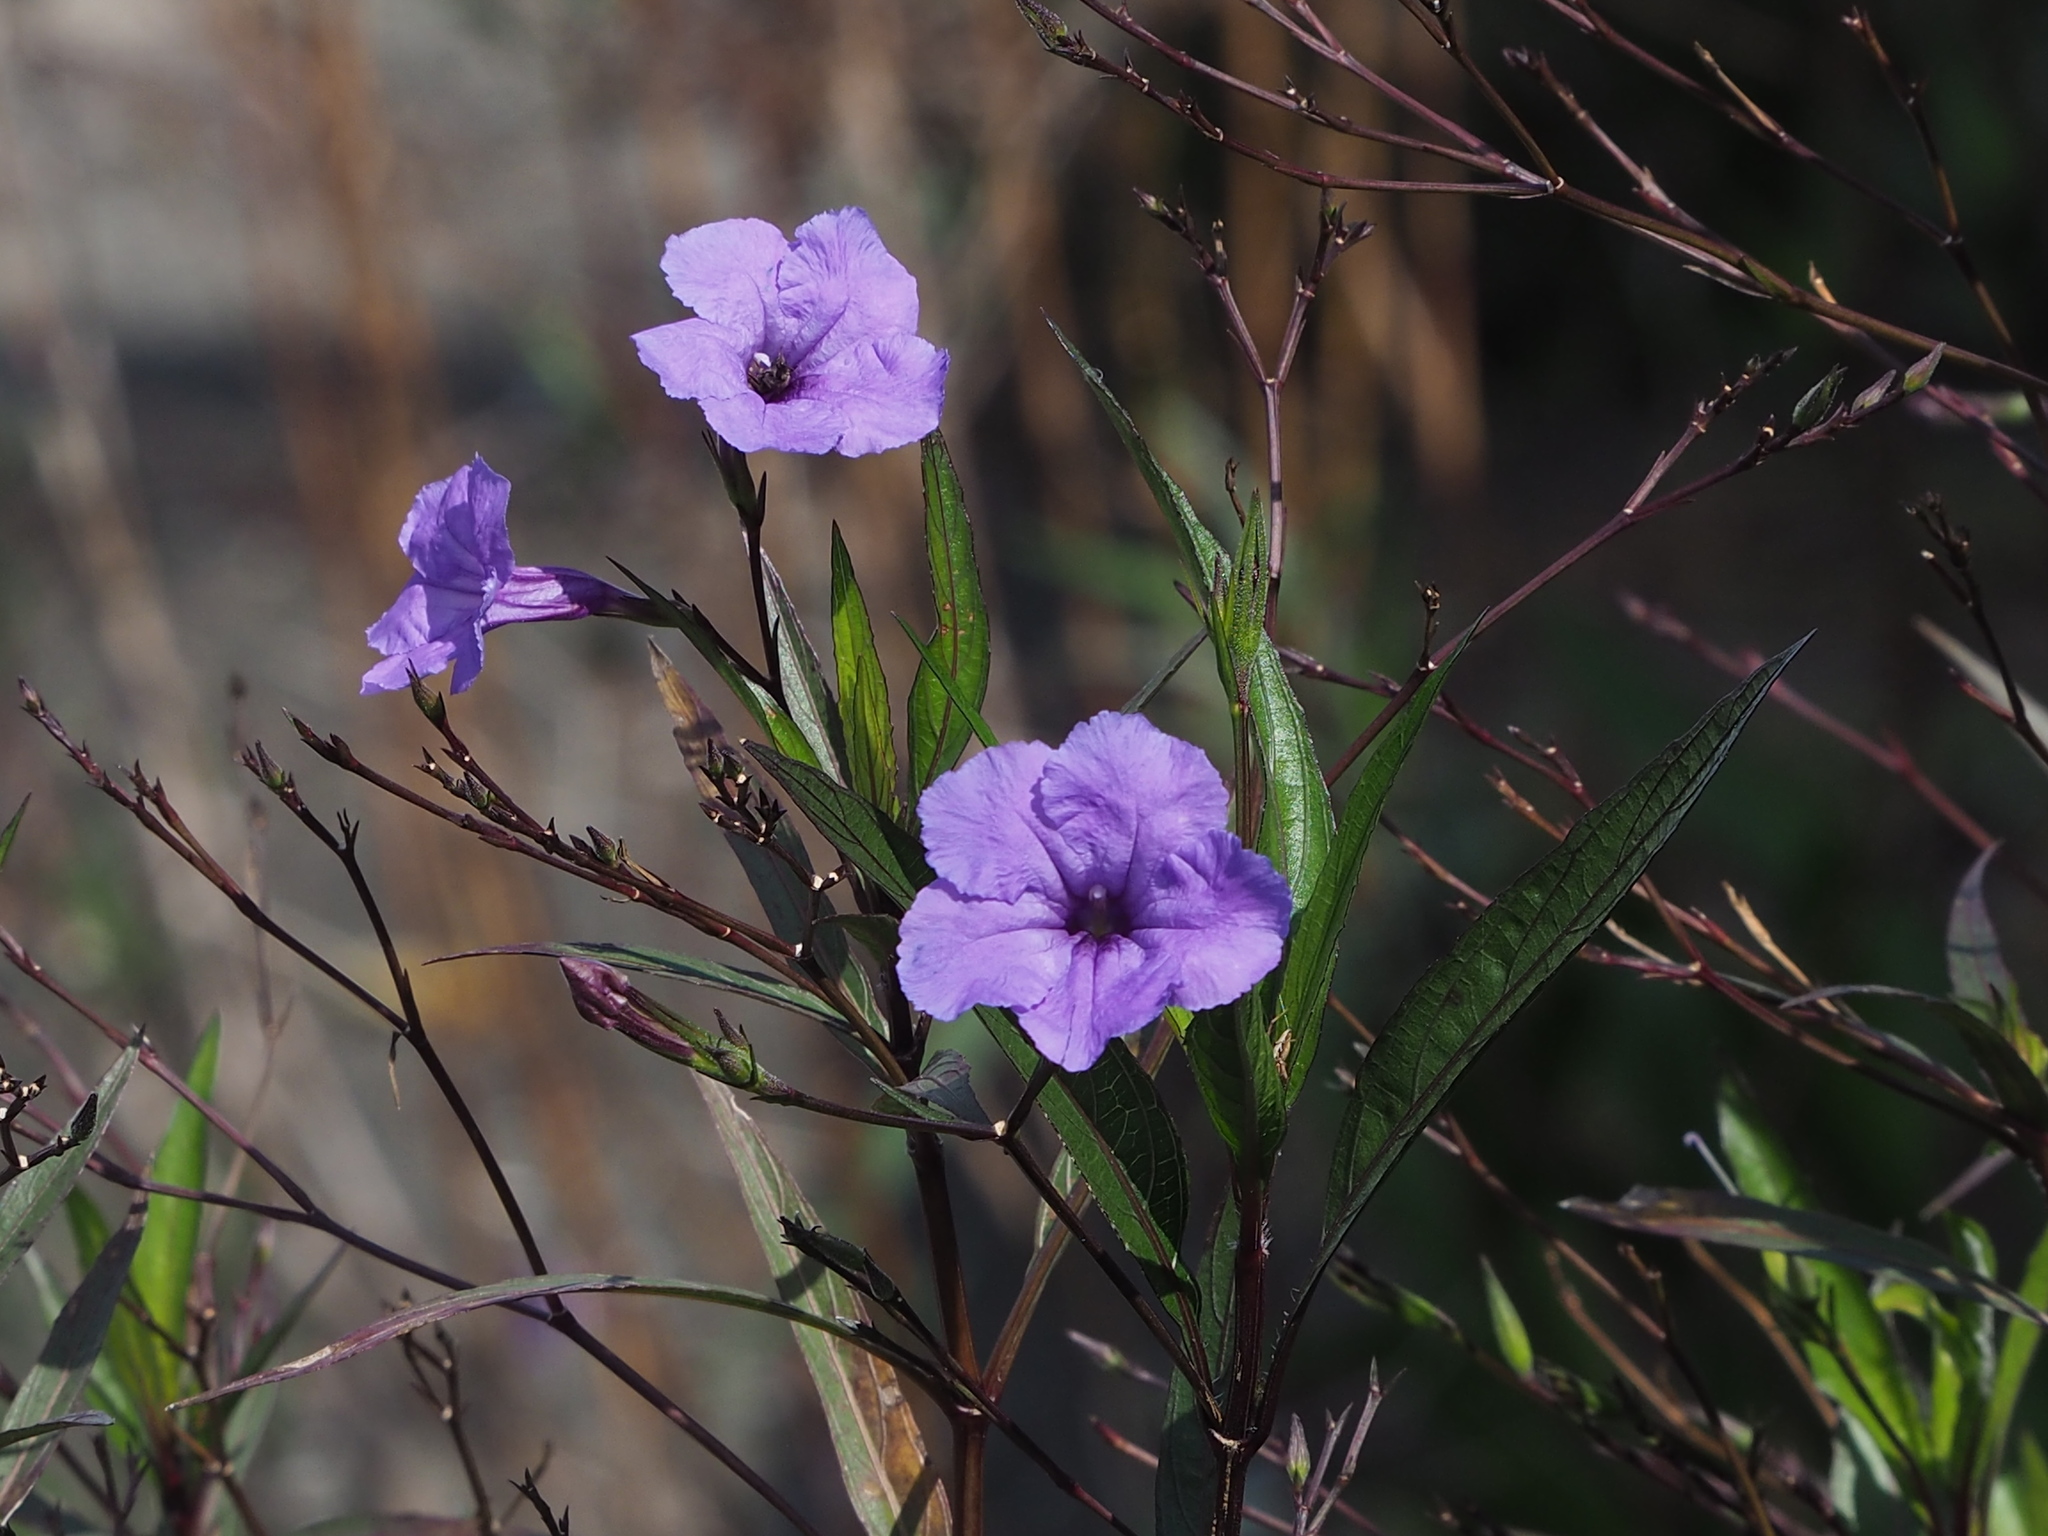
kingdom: Plantae
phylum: Tracheophyta
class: Magnoliopsida
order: Lamiales
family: Acanthaceae
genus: Ruellia
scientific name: Ruellia simplex
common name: Softseed wild petunia
